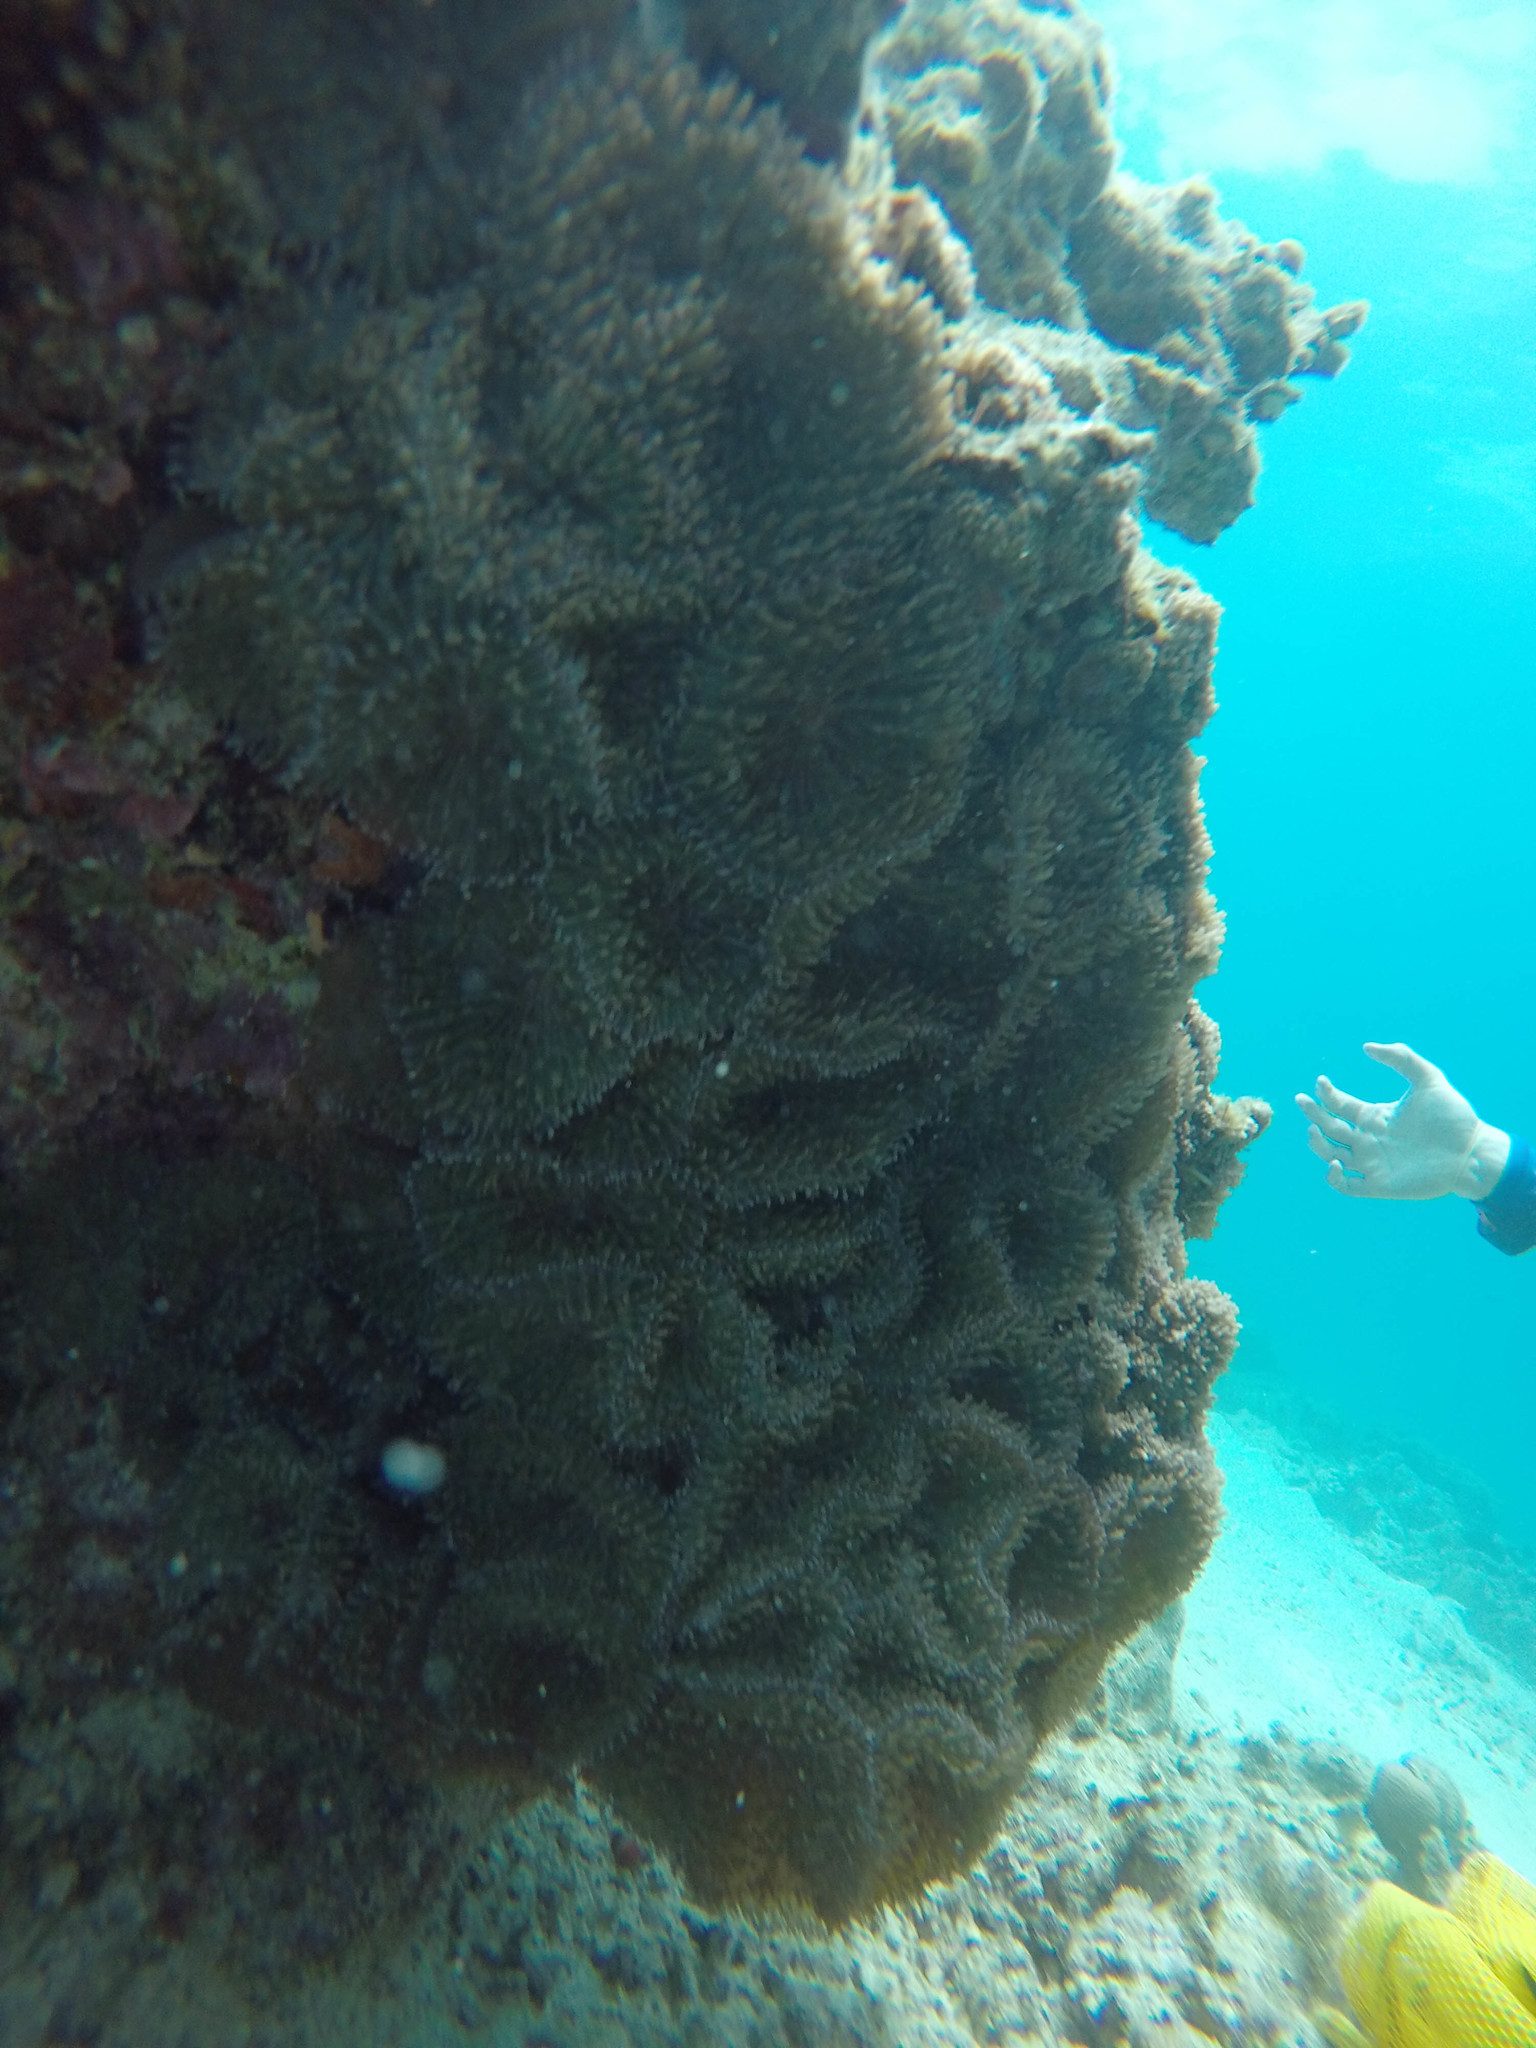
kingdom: Animalia
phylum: Cnidaria
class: Anthozoa
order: Corallimorpharia
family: Discosomidae
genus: Rhodactis
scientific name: Rhodactis rhodostoma
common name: Red-mouth mushroom anemone
